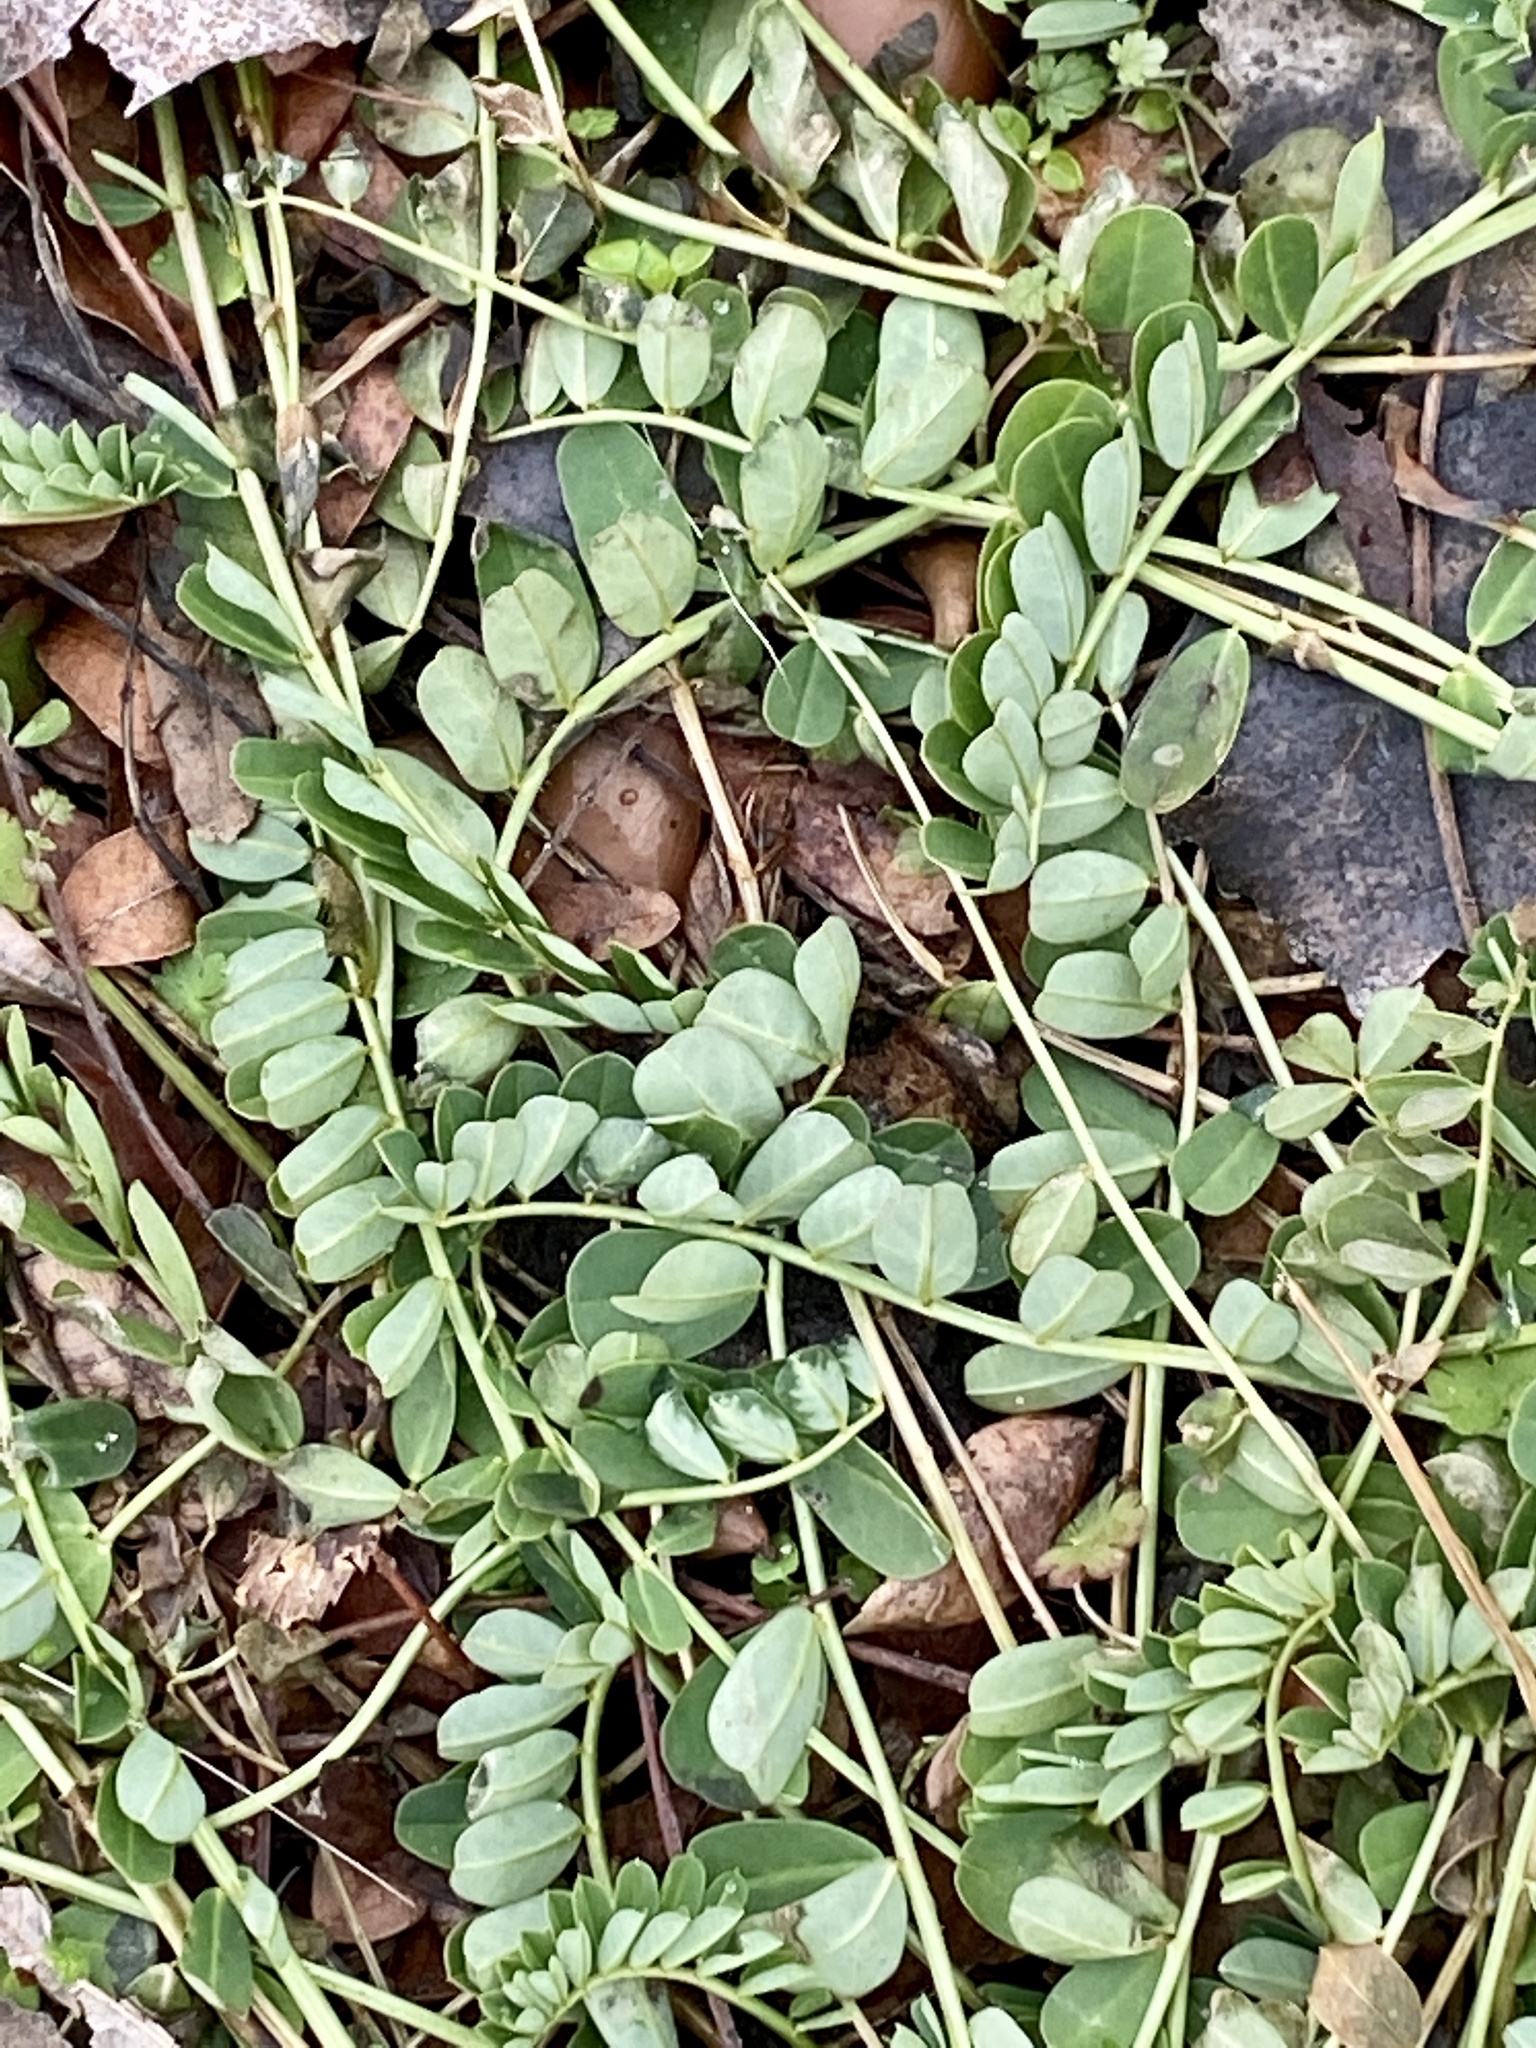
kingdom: Plantae
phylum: Tracheophyta
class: Magnoliopsida
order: Fabales
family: Fabaceae
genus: Coronilla
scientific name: Coronilla varia
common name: Crownvetch
